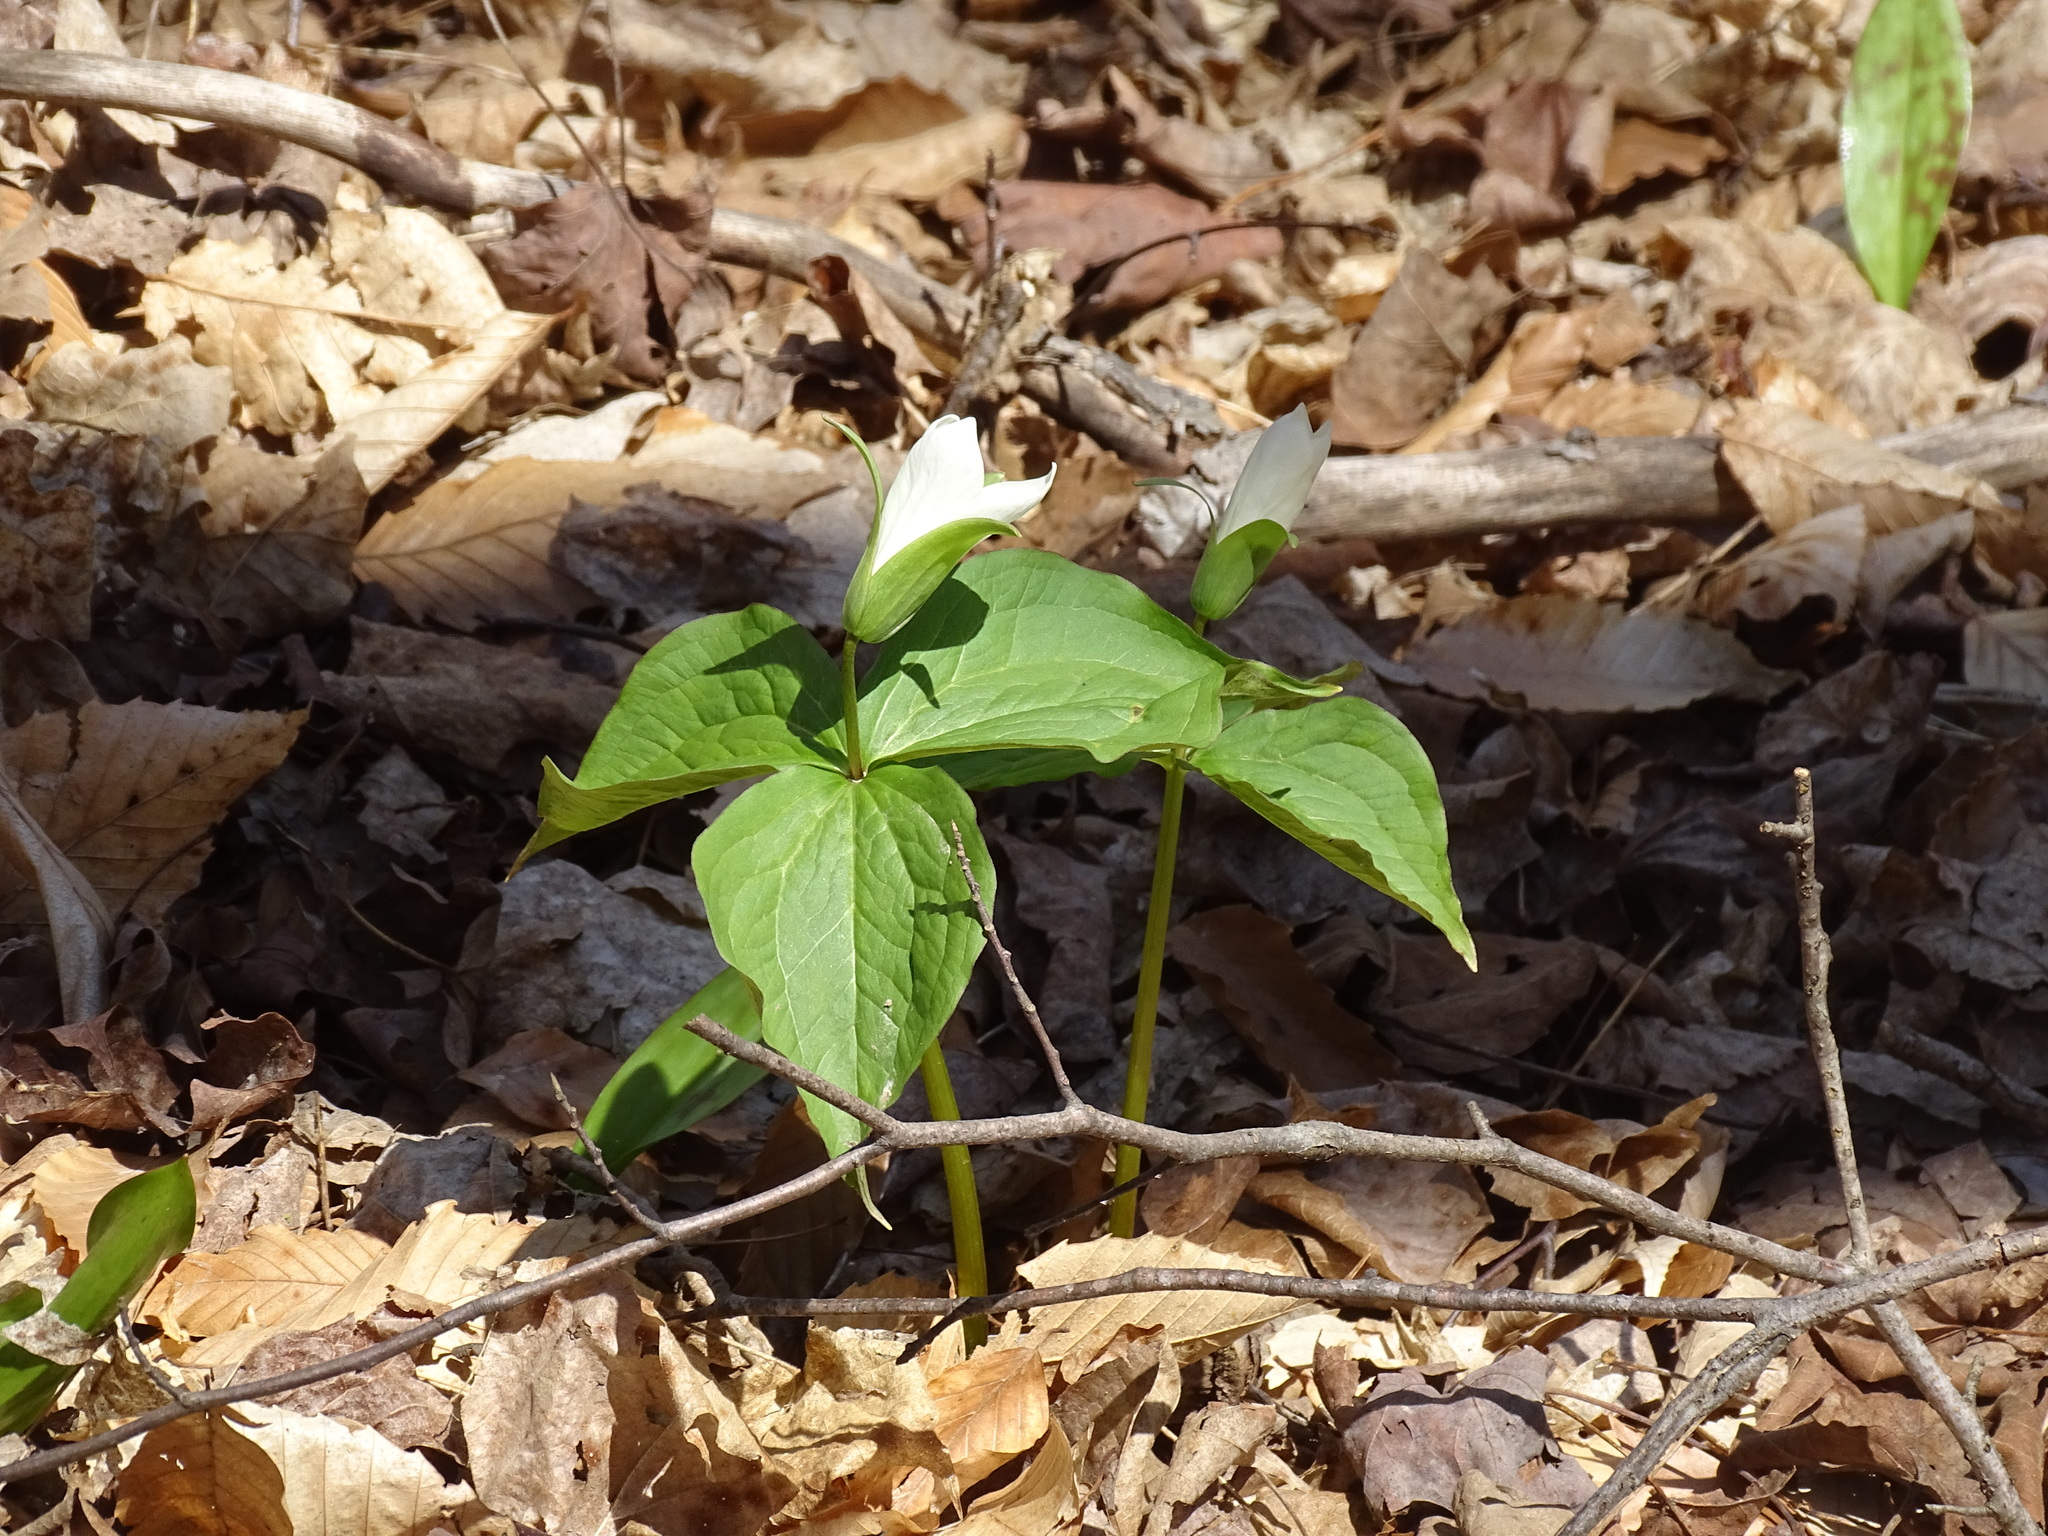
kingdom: Plantae
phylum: Tracheophyta
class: Liliopsida
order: Liliales
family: Melanthiaceae
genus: Trillium
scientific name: Trillium grandiflorum
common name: Great white trillium
